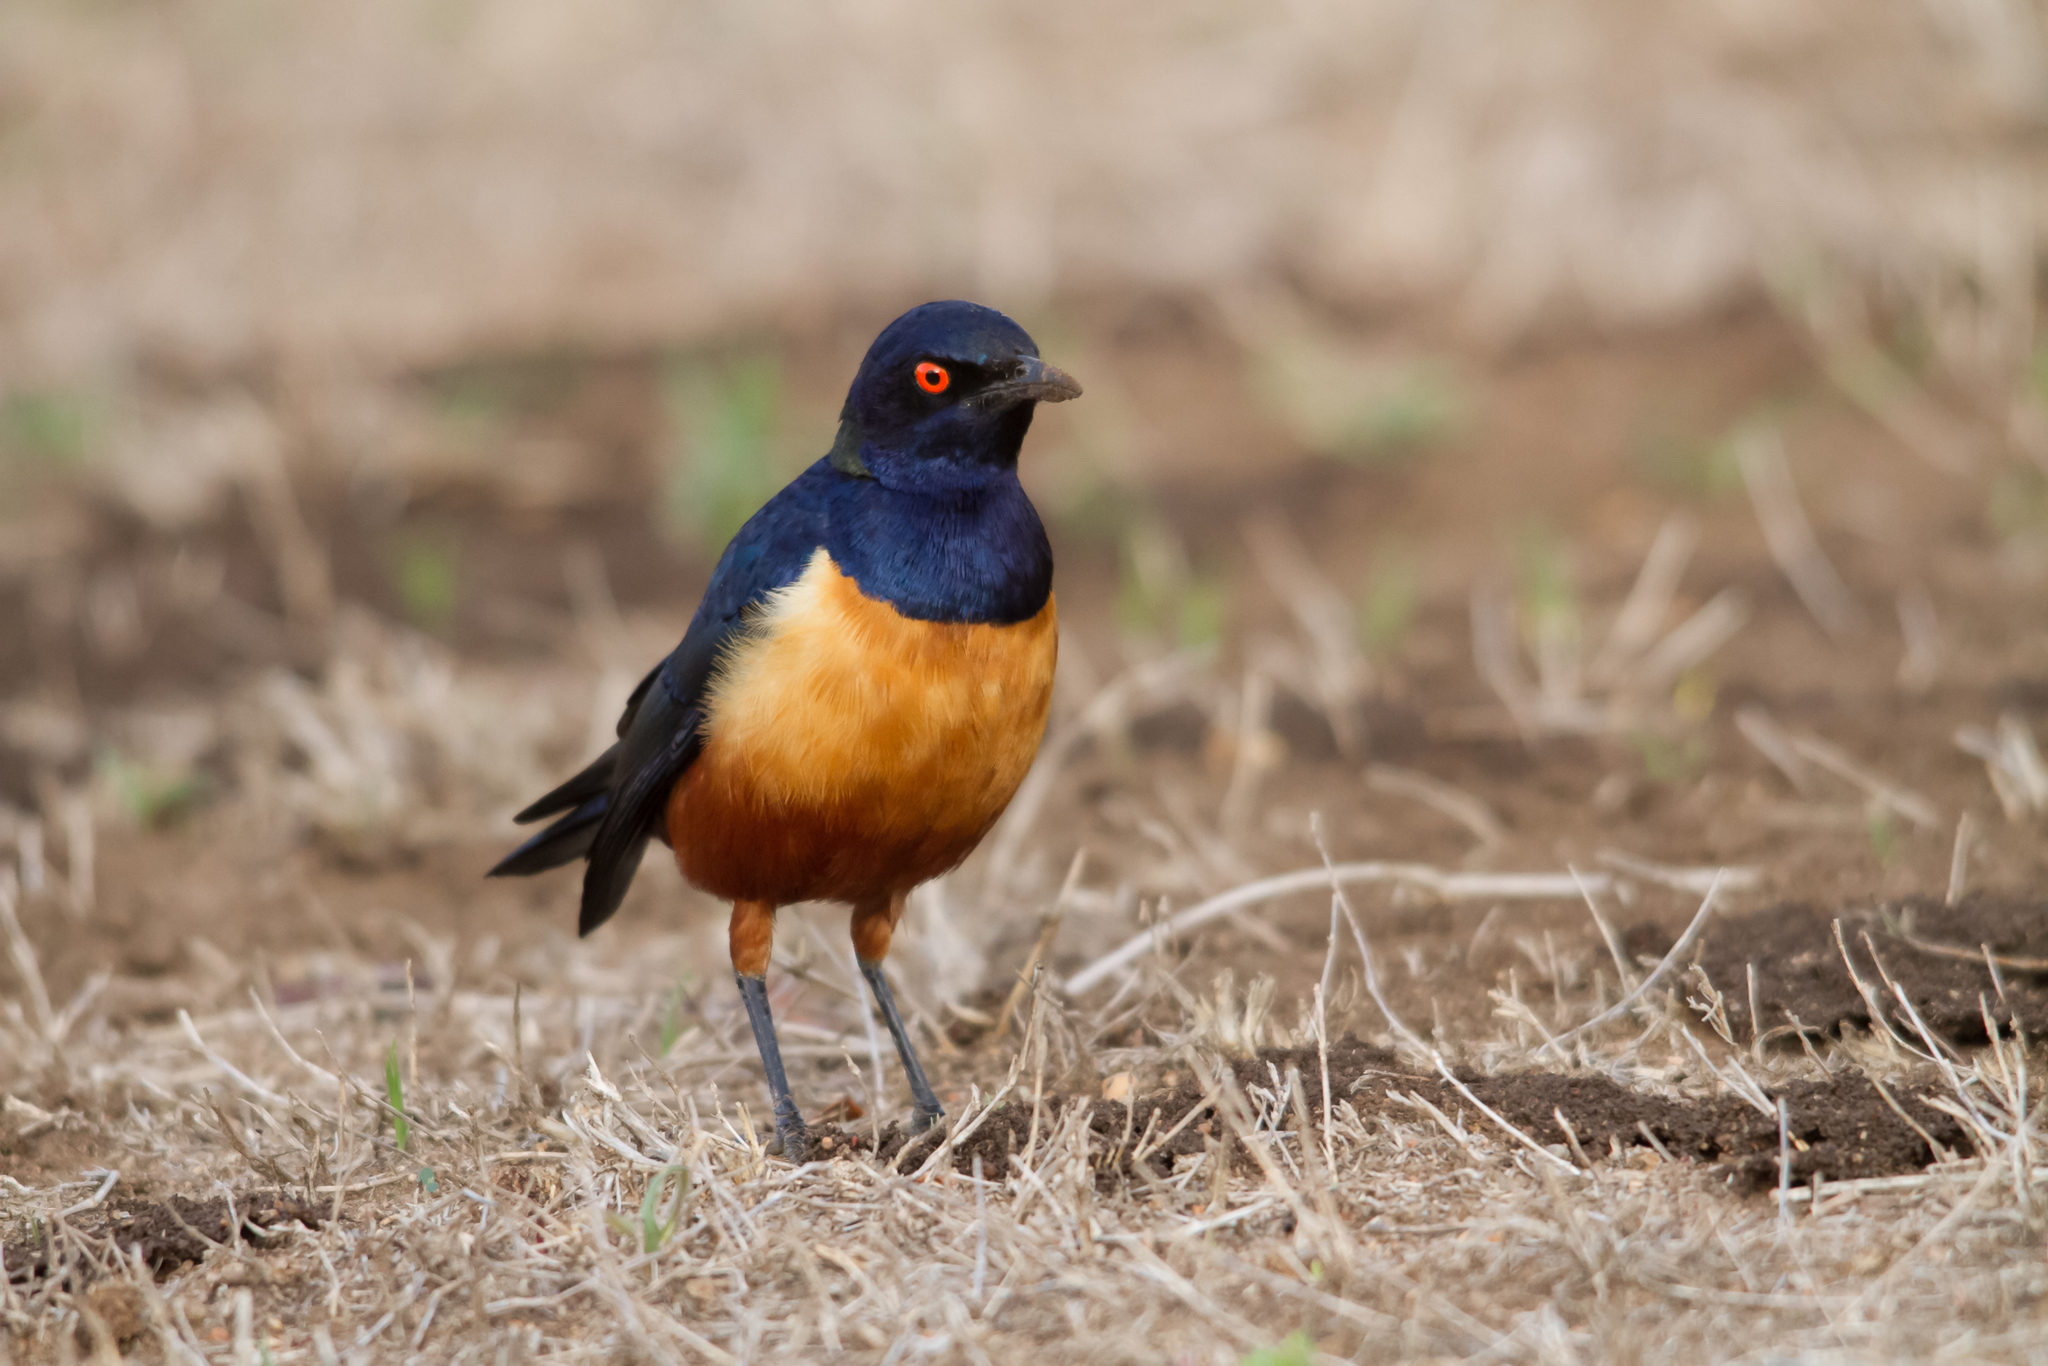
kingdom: Animalia
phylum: Chordata
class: Aves
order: Passeriformes
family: Sturnidae
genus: Lamprotornis
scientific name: Lamprotornis hildebrandti
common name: Hildebrandt's starling
